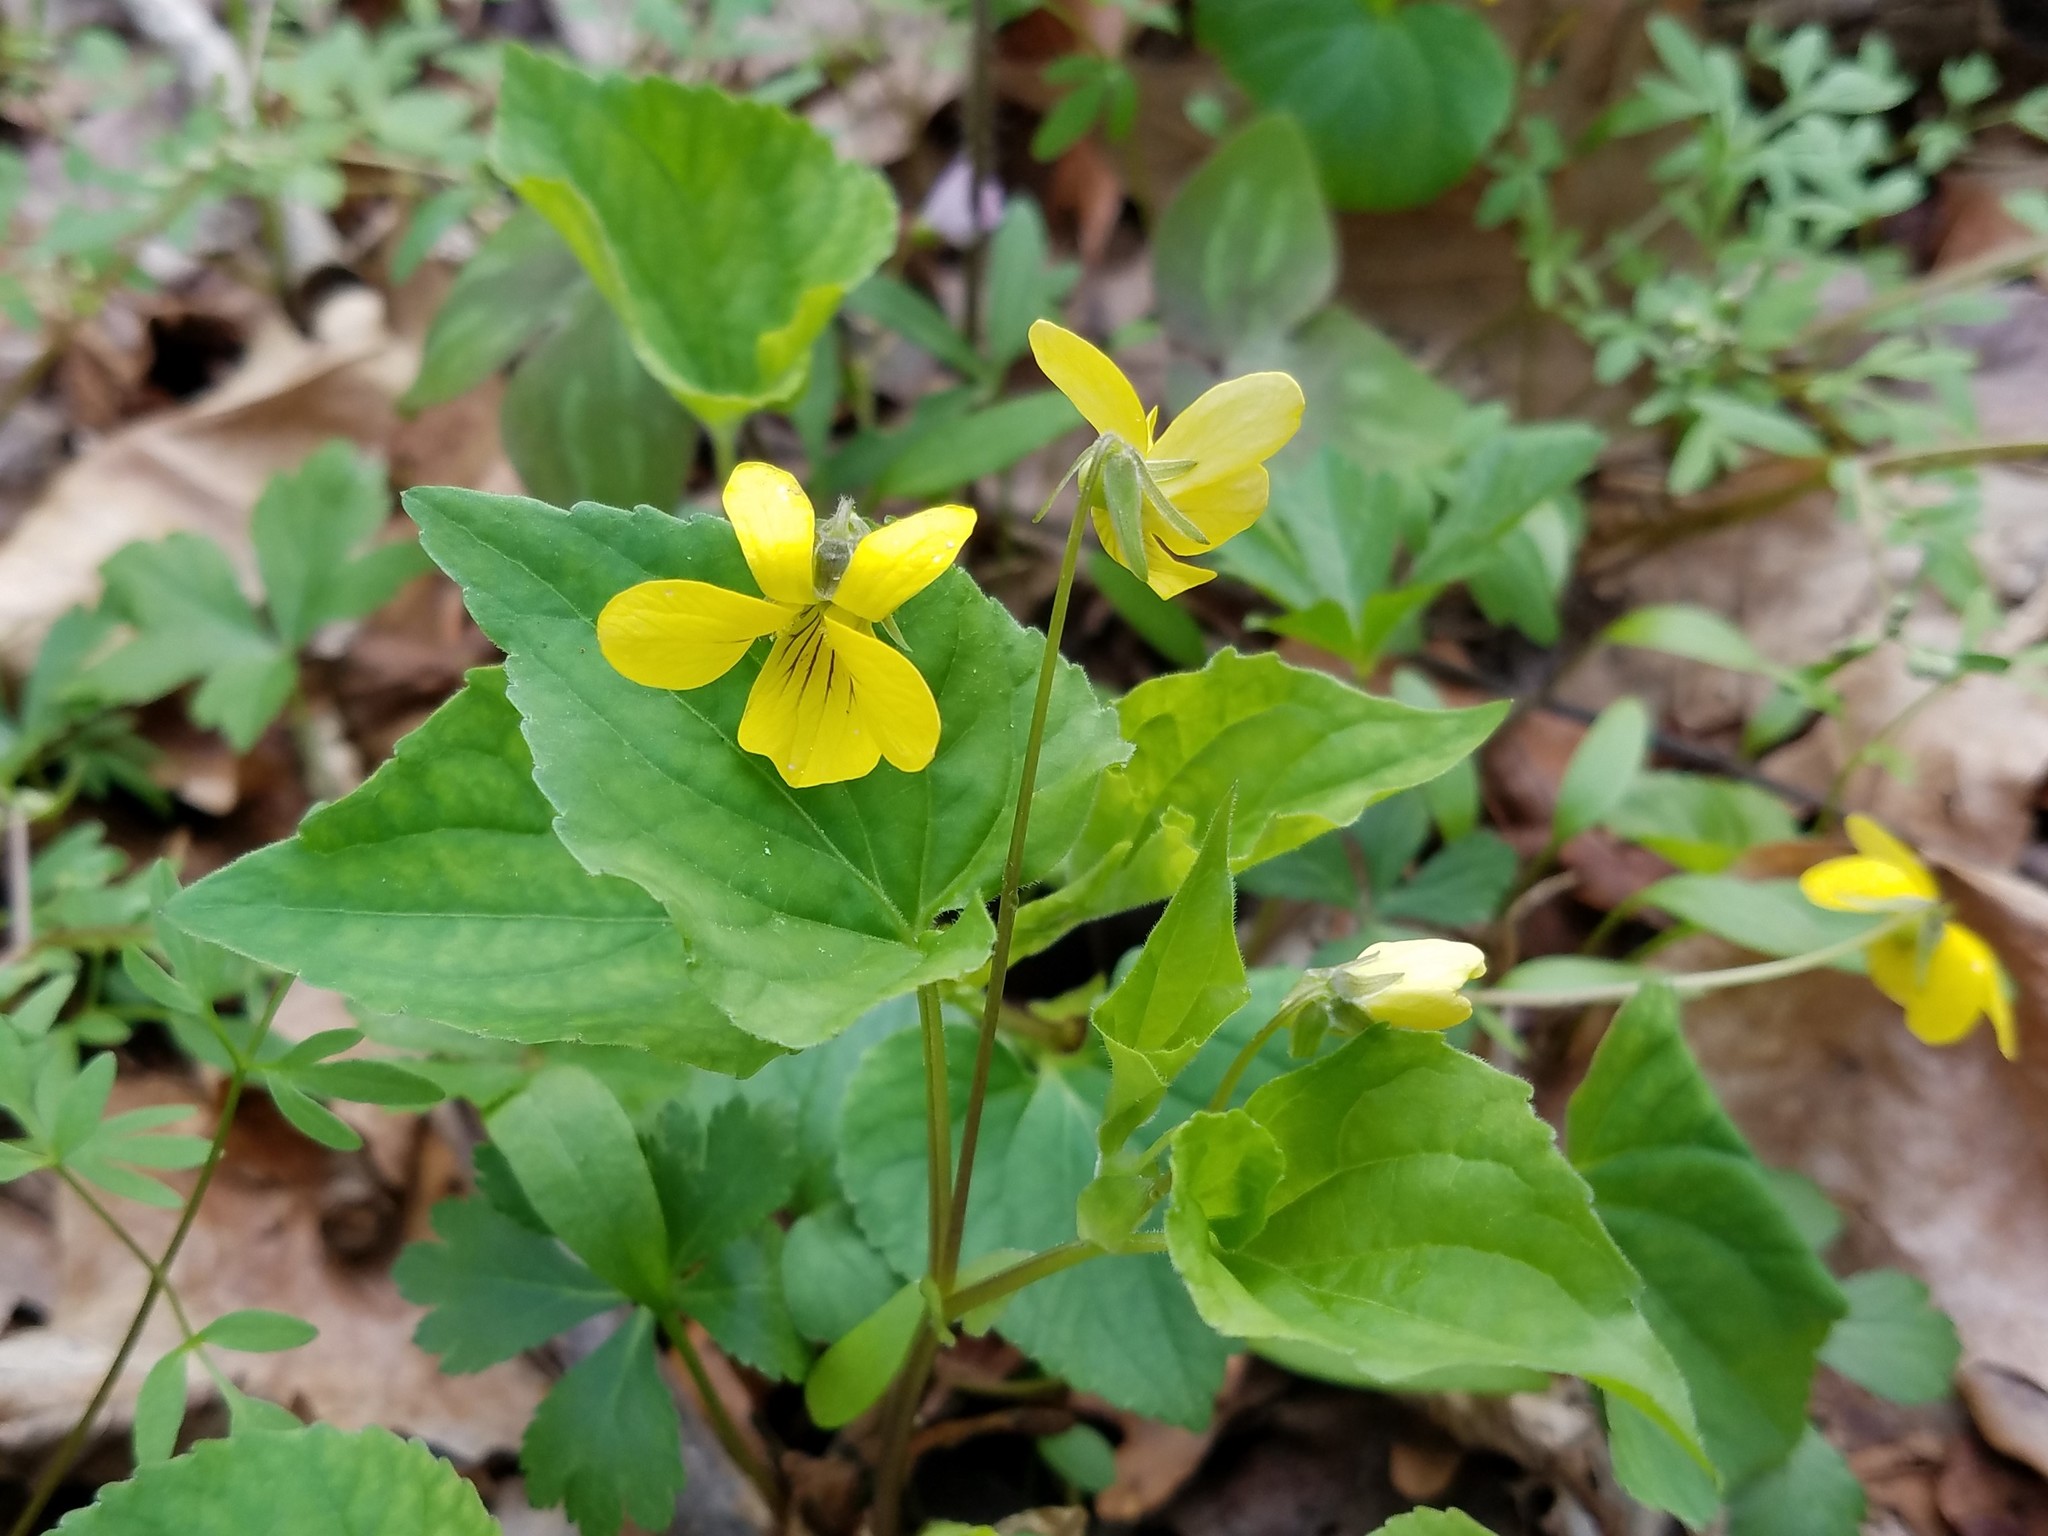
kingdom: Plantae
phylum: Tracheophyta
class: Magnoliopsida
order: Malpighiales
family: Violaceae
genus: Viola
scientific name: Viola eriocarpa
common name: Smooth yellow violet
